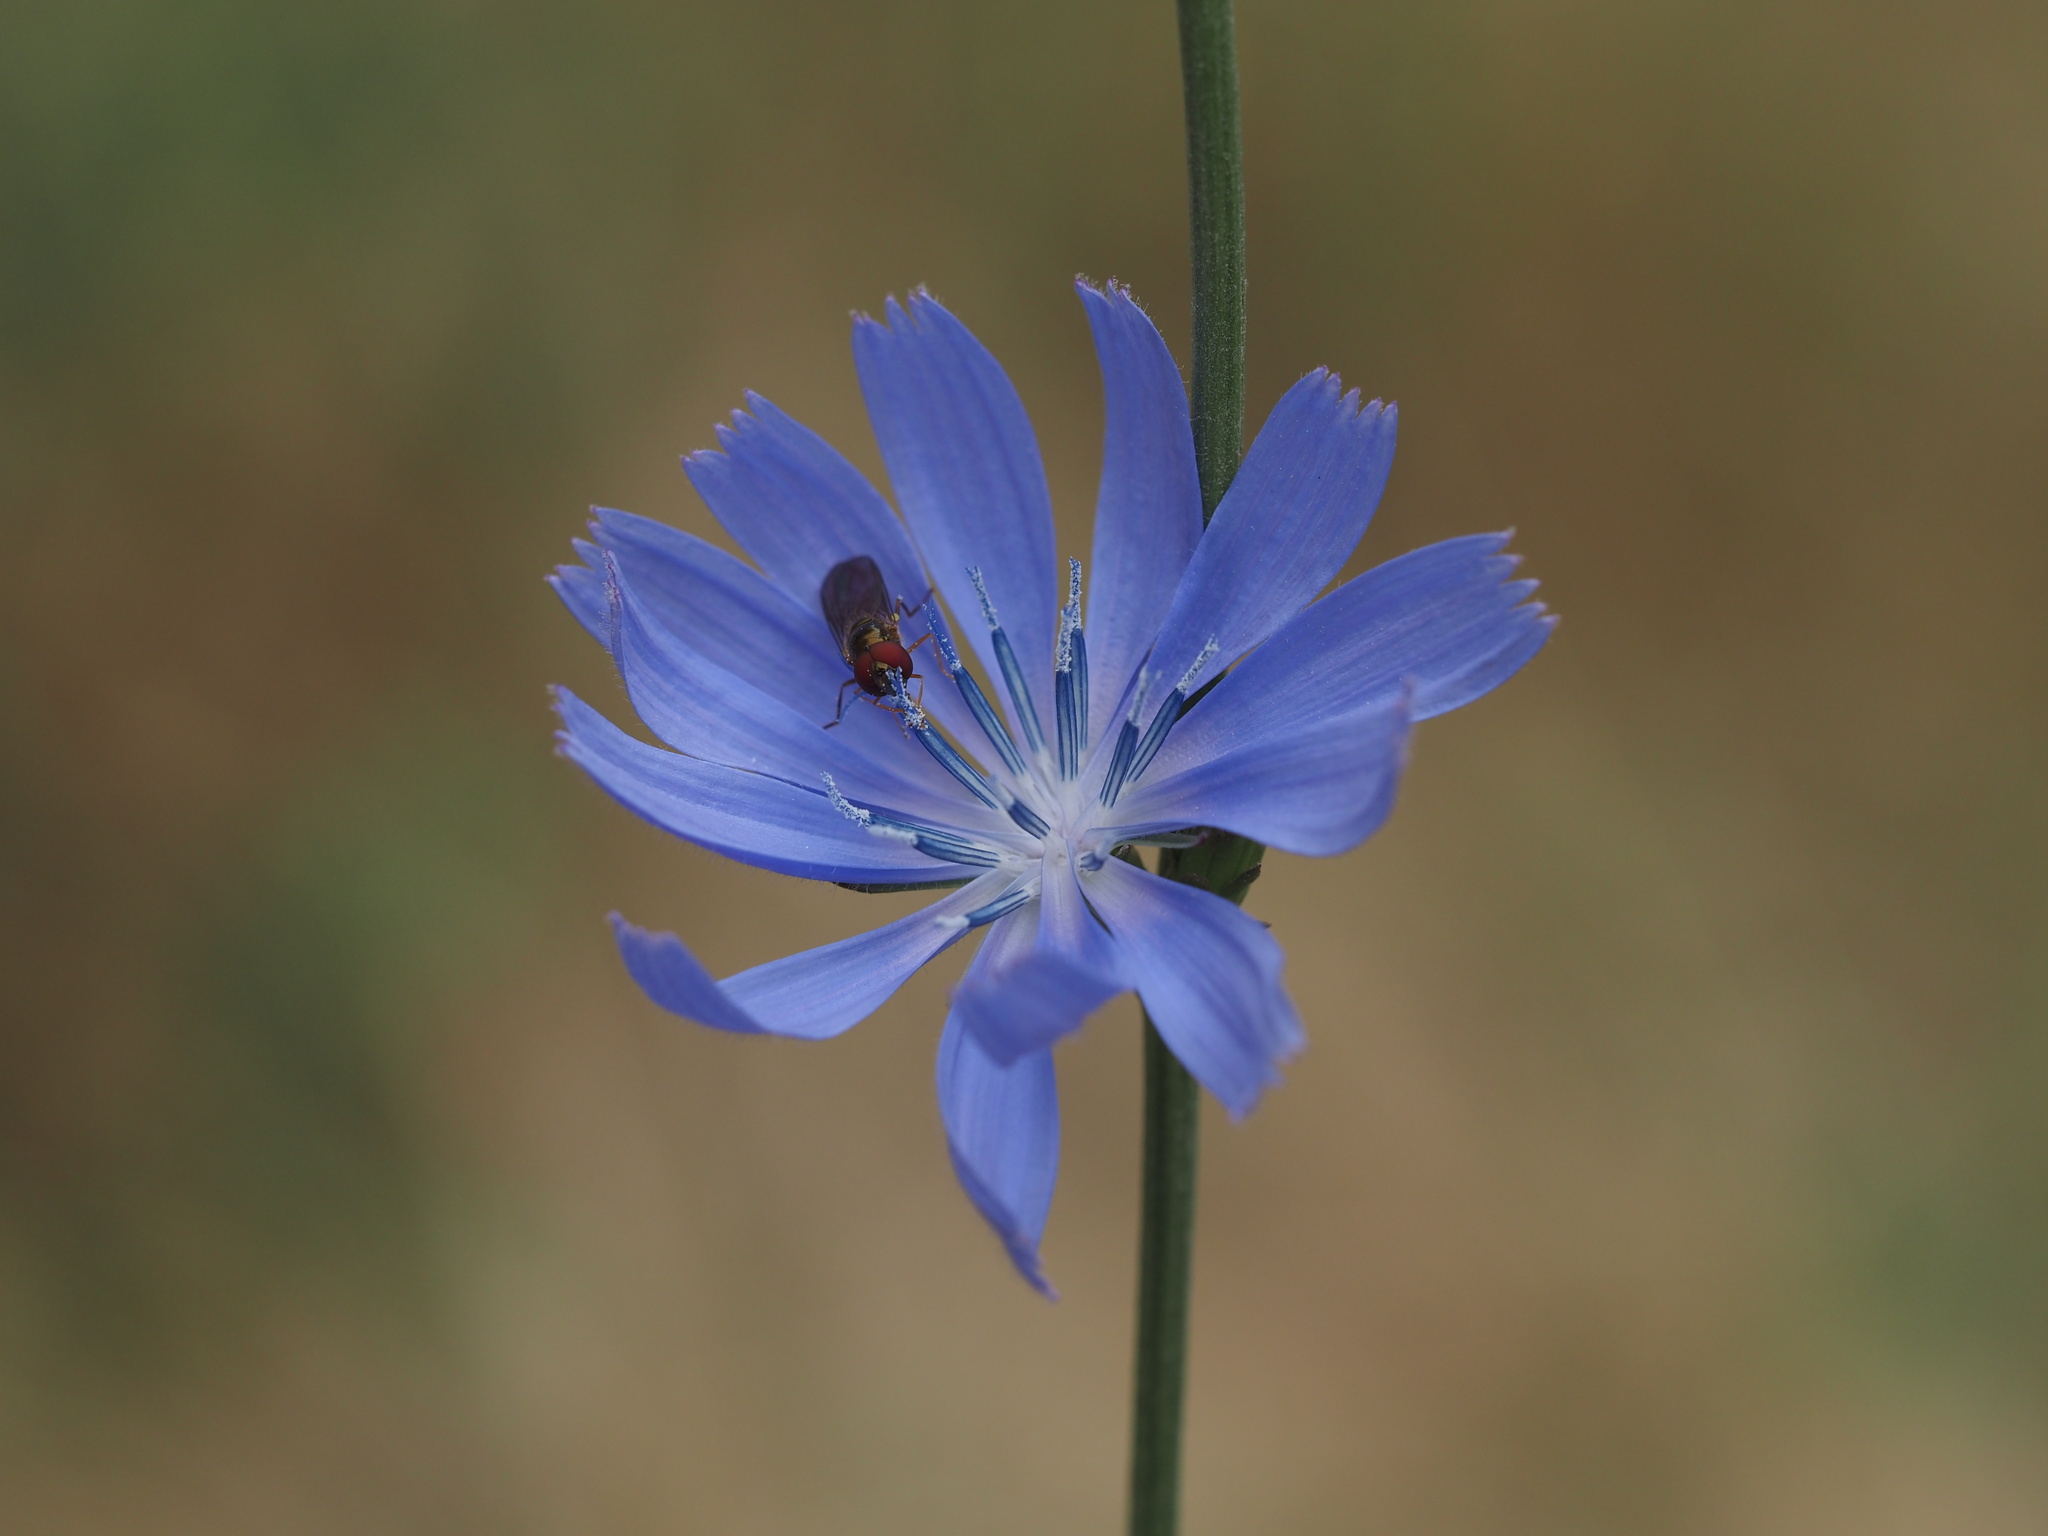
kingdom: Animalia
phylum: Arthropoda
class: Insecta
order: Diptera
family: Syrphidae
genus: Melanostoma
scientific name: Melanostoma mellina
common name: Hover fly
